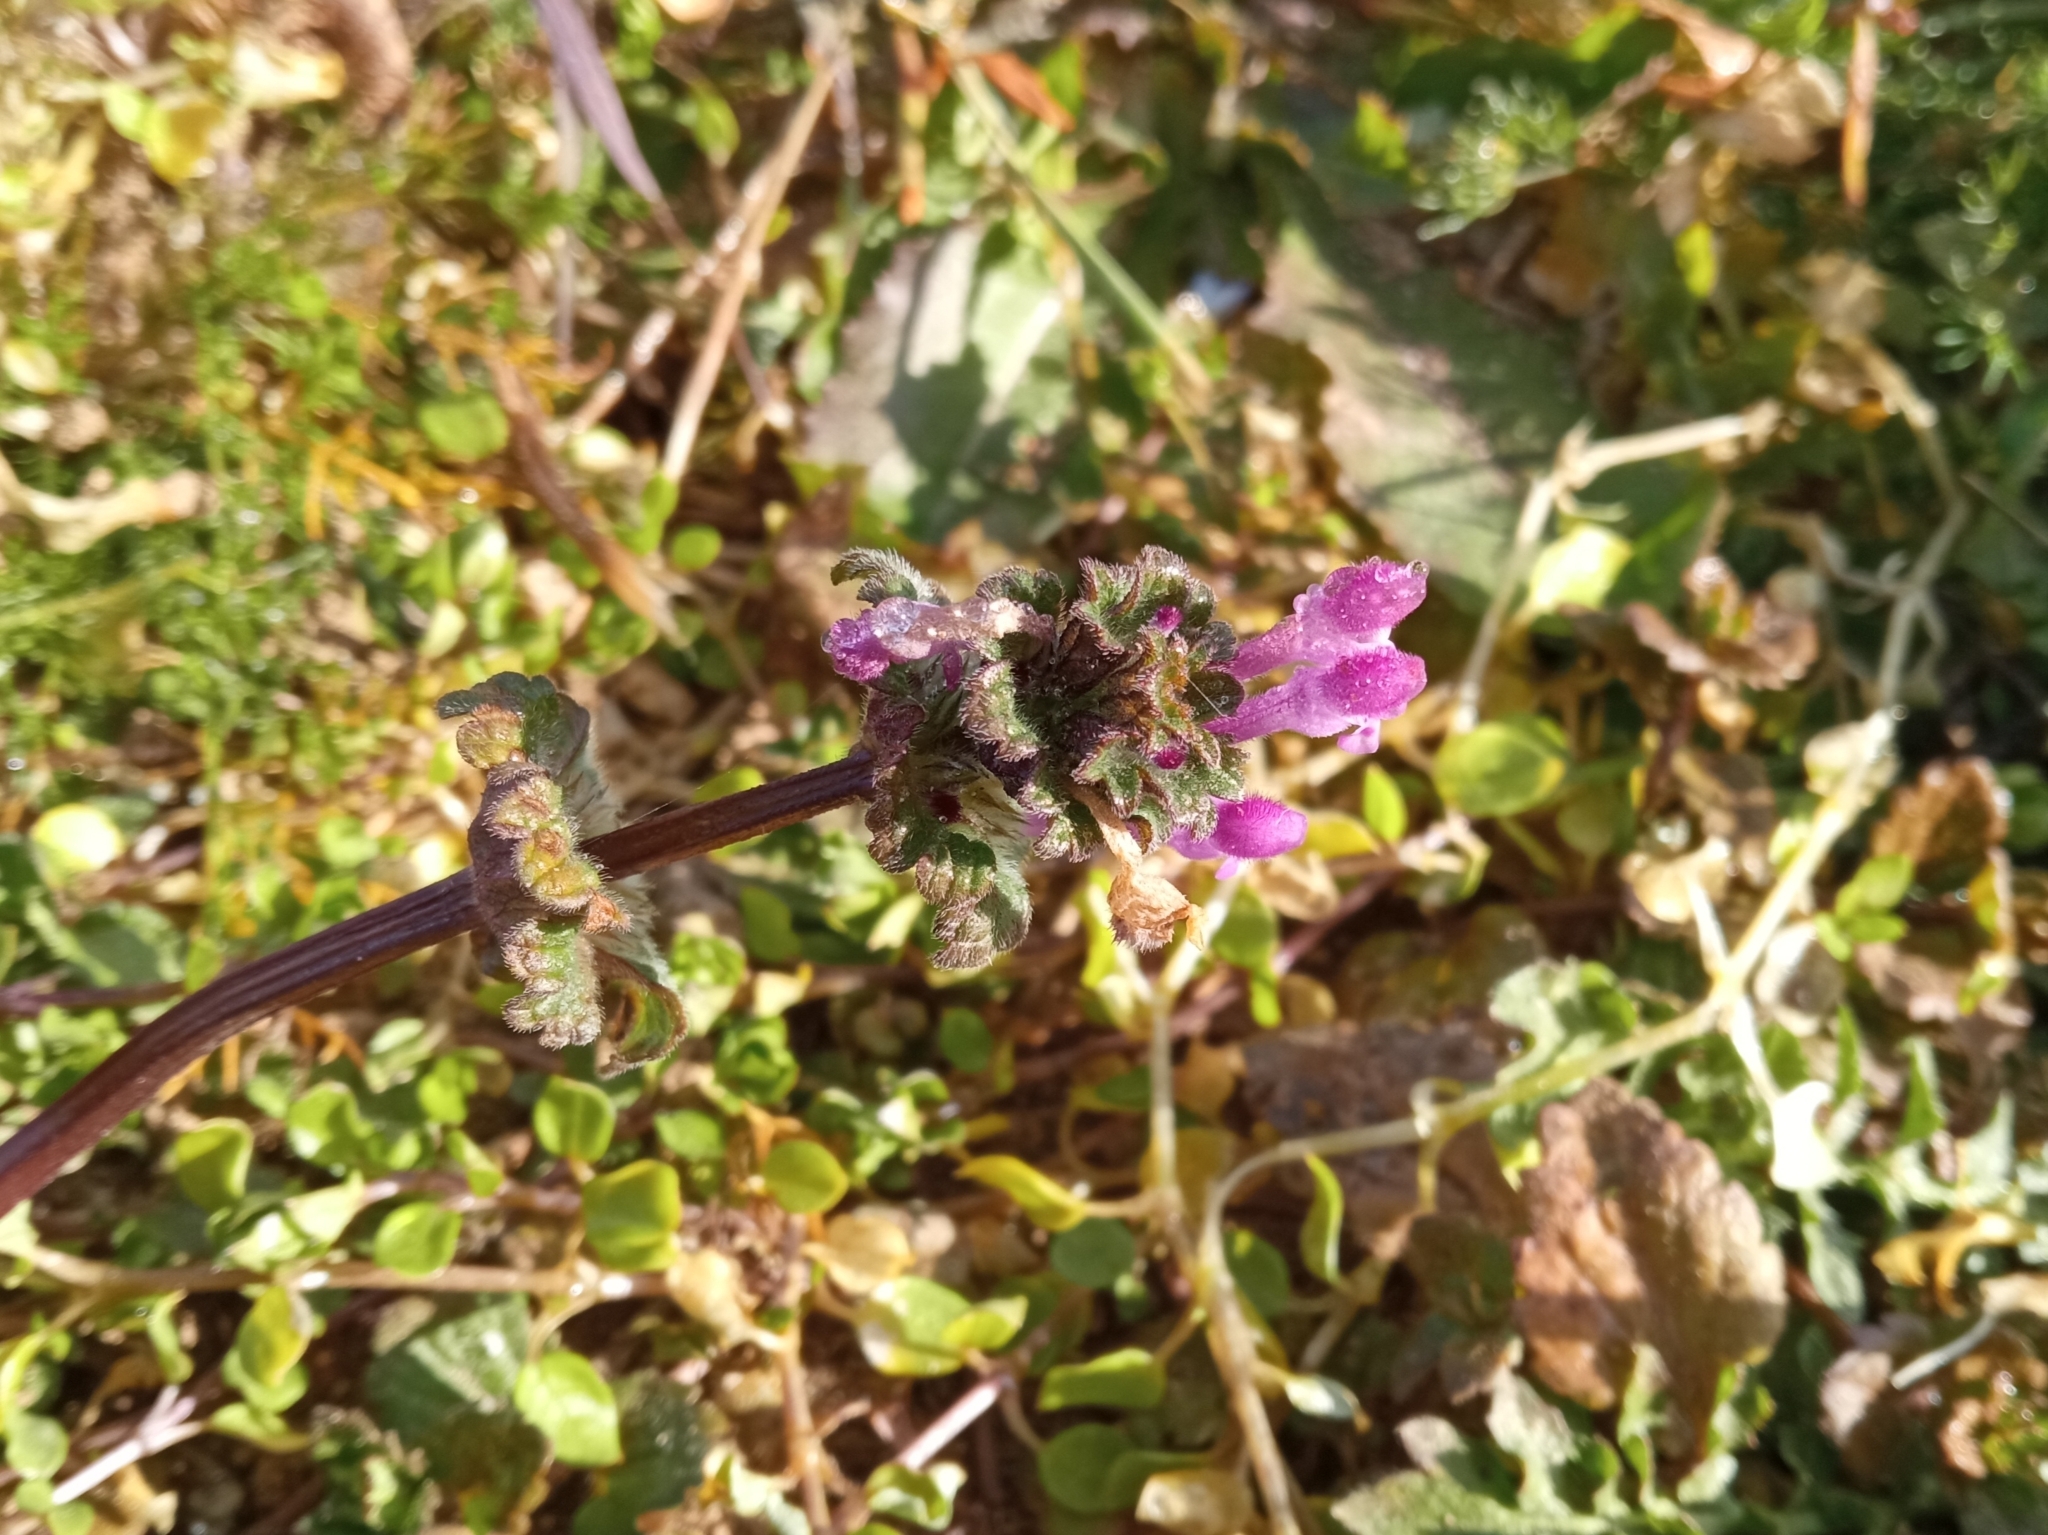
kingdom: Plantae
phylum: Tracheophyta
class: Magnoliopsida
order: Lamiales
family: Lamiaceae
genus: Lamium
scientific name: Lamium amplexicaule
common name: Henbit dead-nettle
